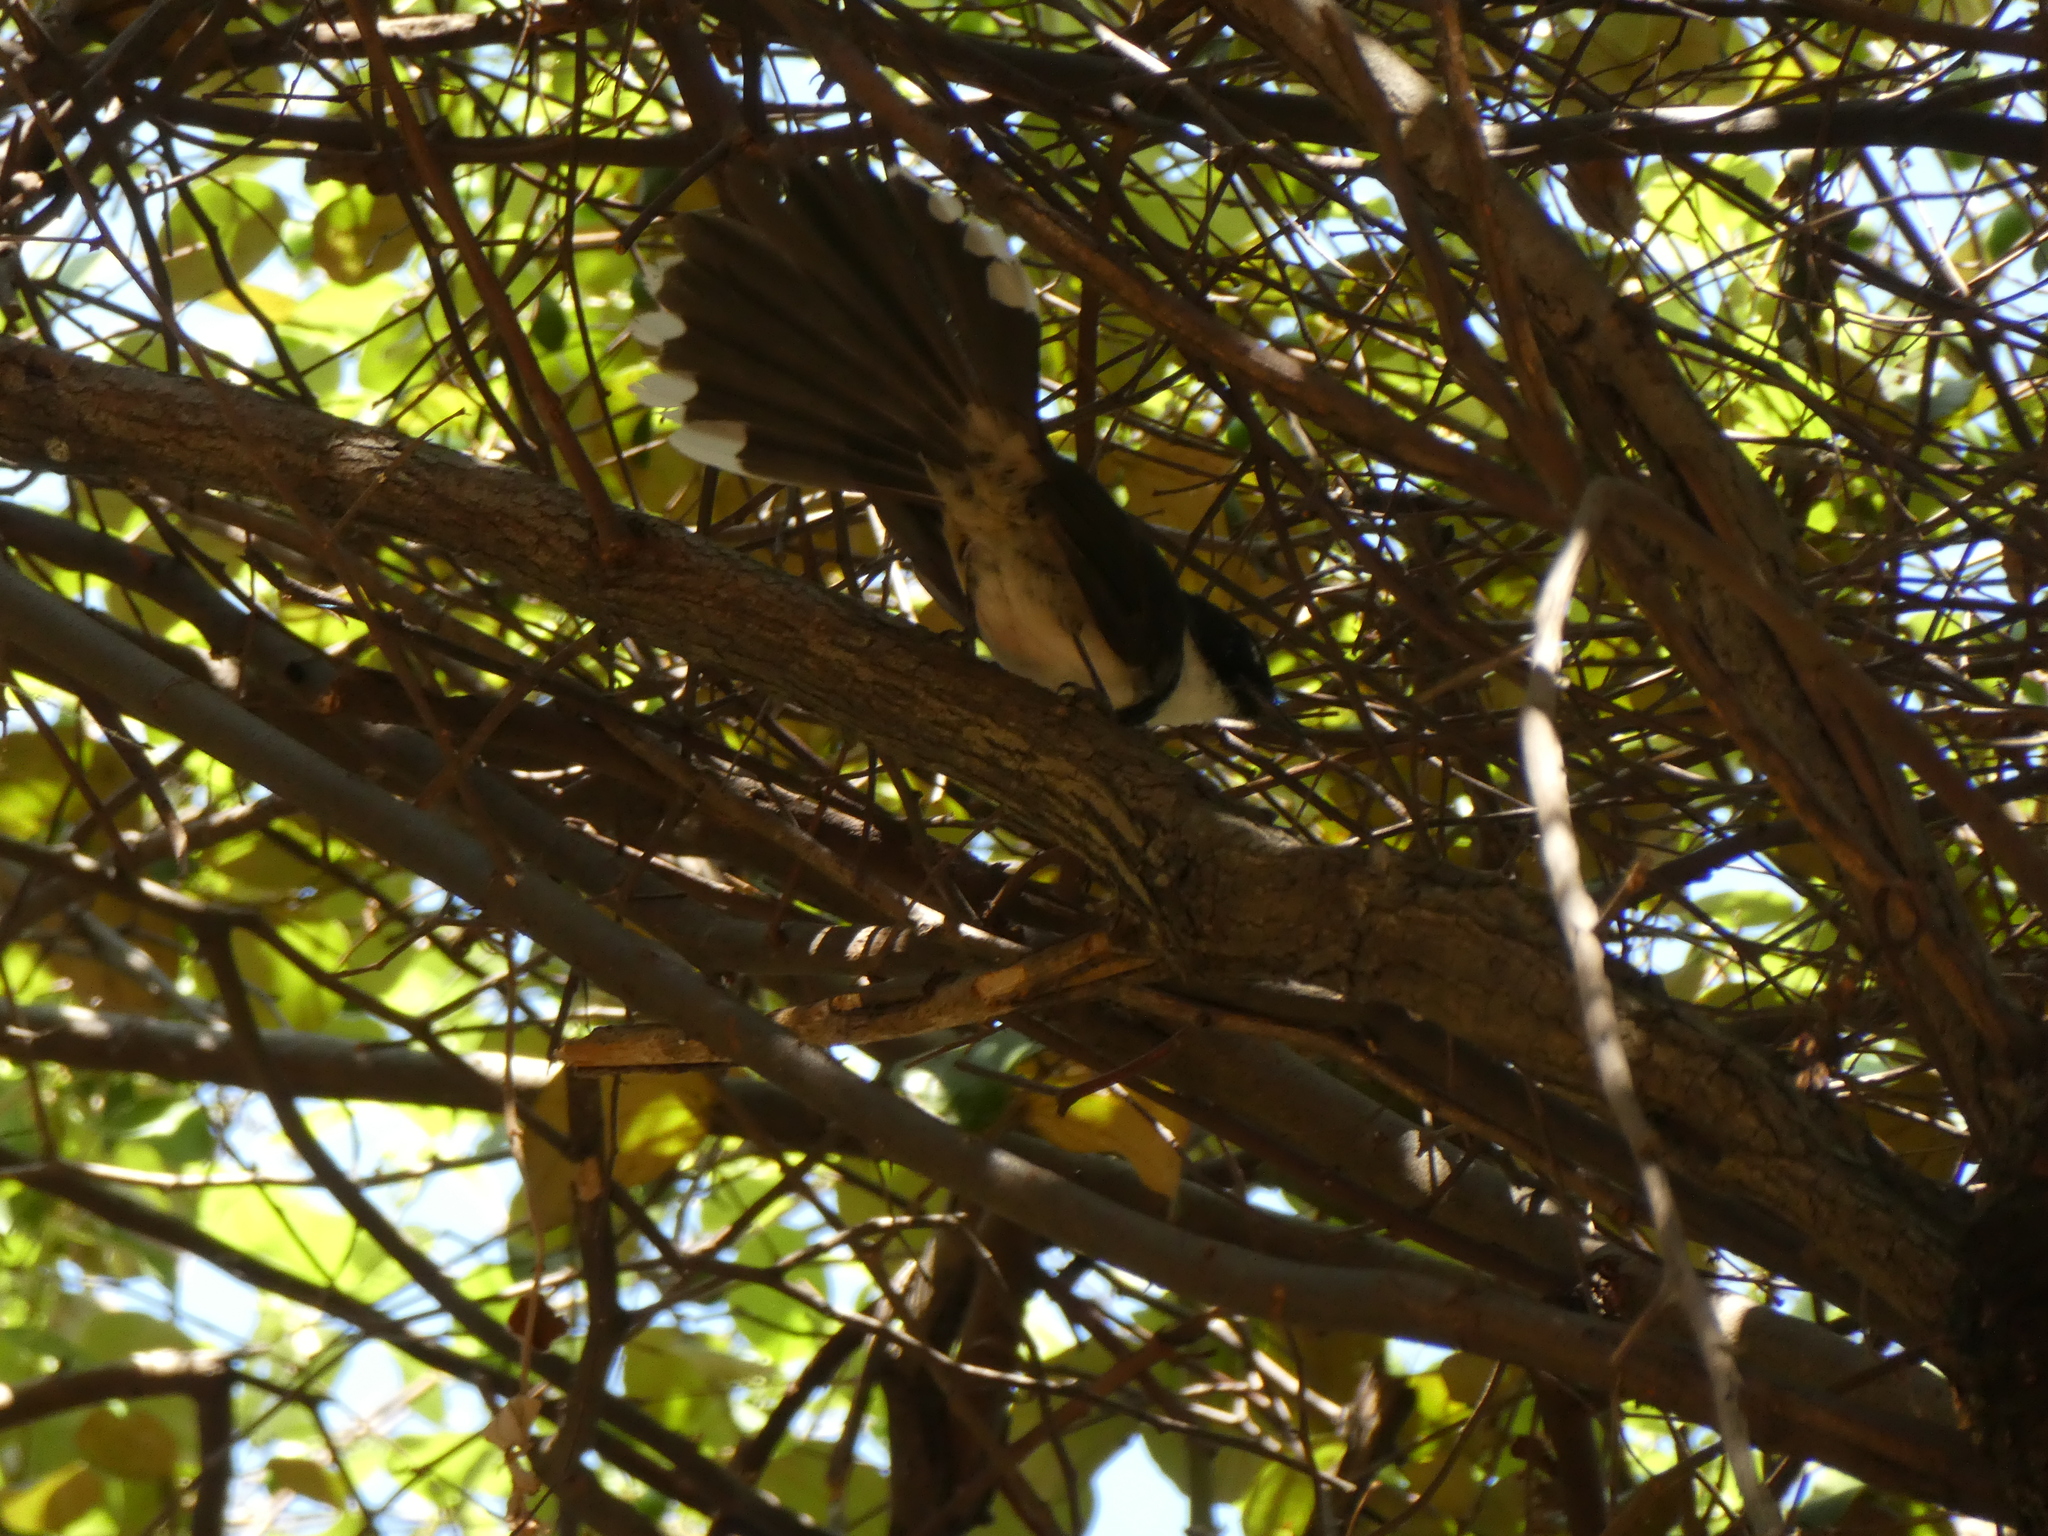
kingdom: Animalia
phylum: Chordata
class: Aves
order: Passeriformes
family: Rhipiduridae
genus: Rhipidura
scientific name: Rhipidura javanica
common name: Pied fantail
